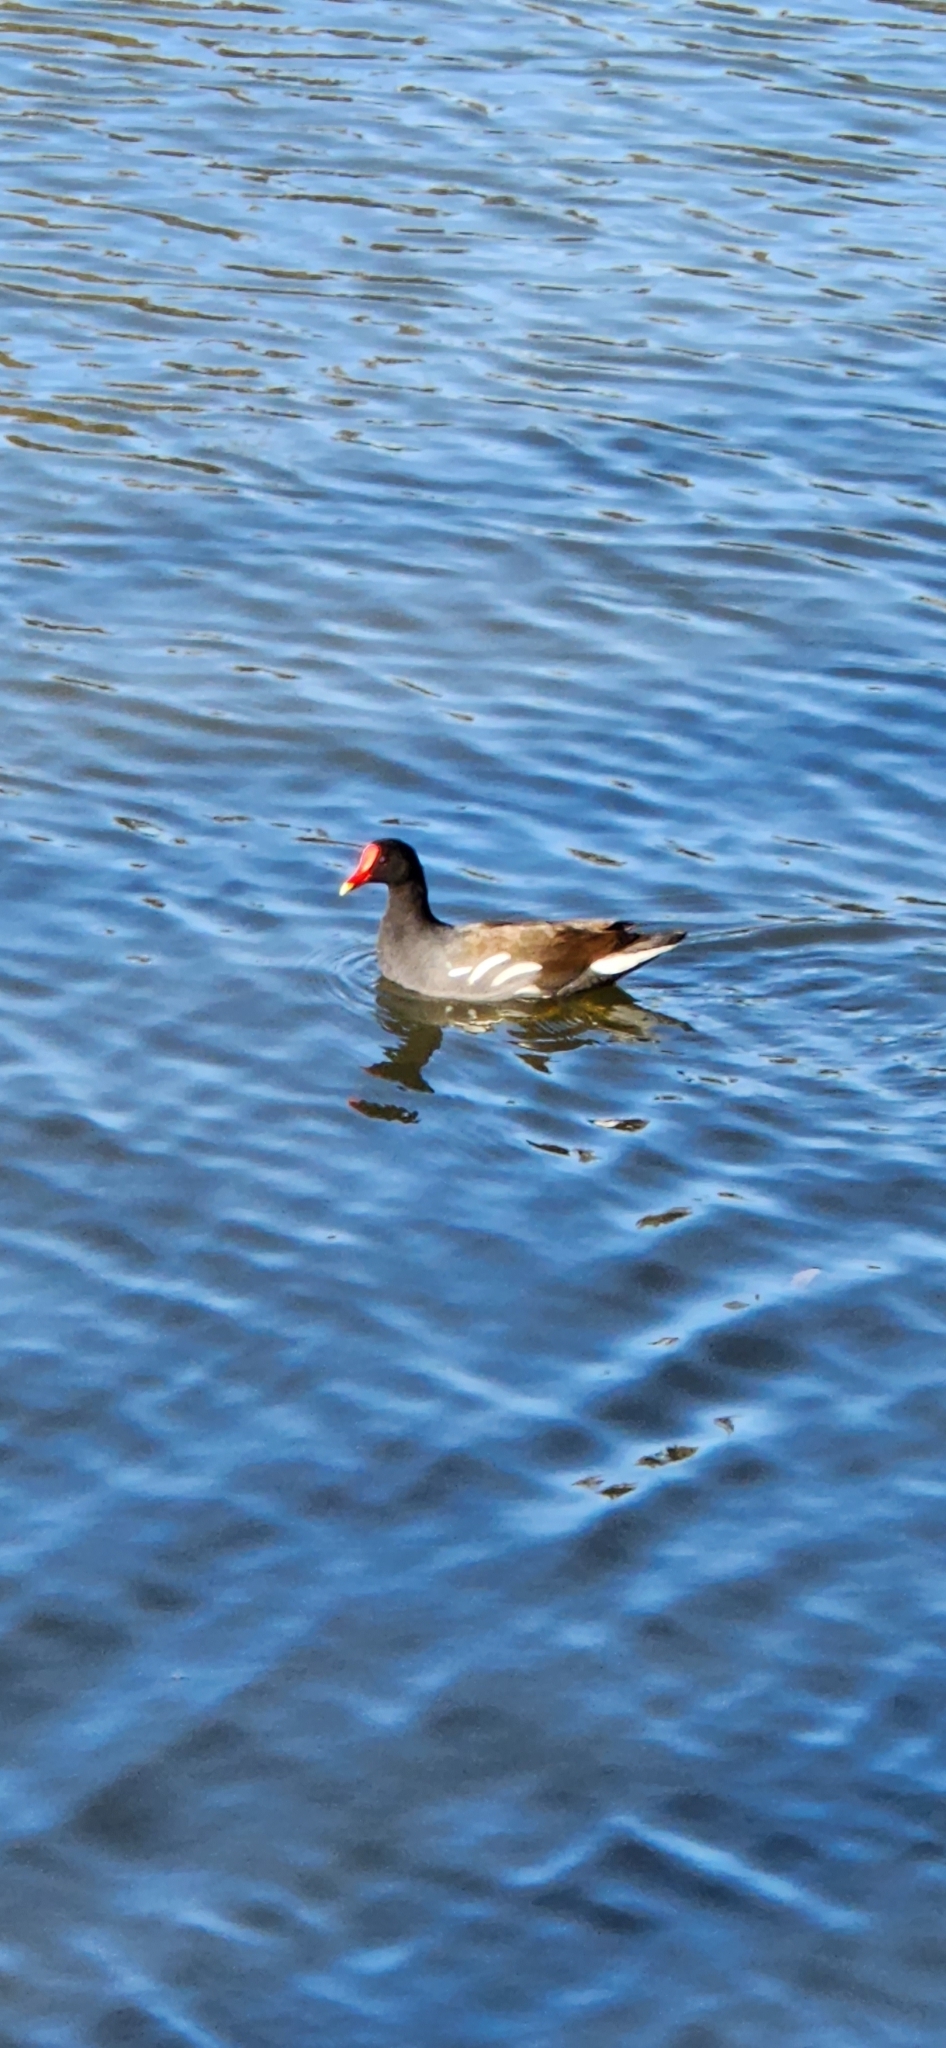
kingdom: Animalia
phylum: Chordata
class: Aves
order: Gruiformes
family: Rallidae
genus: Gallinula
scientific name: Gallinula chloropus
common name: Common moorhen
